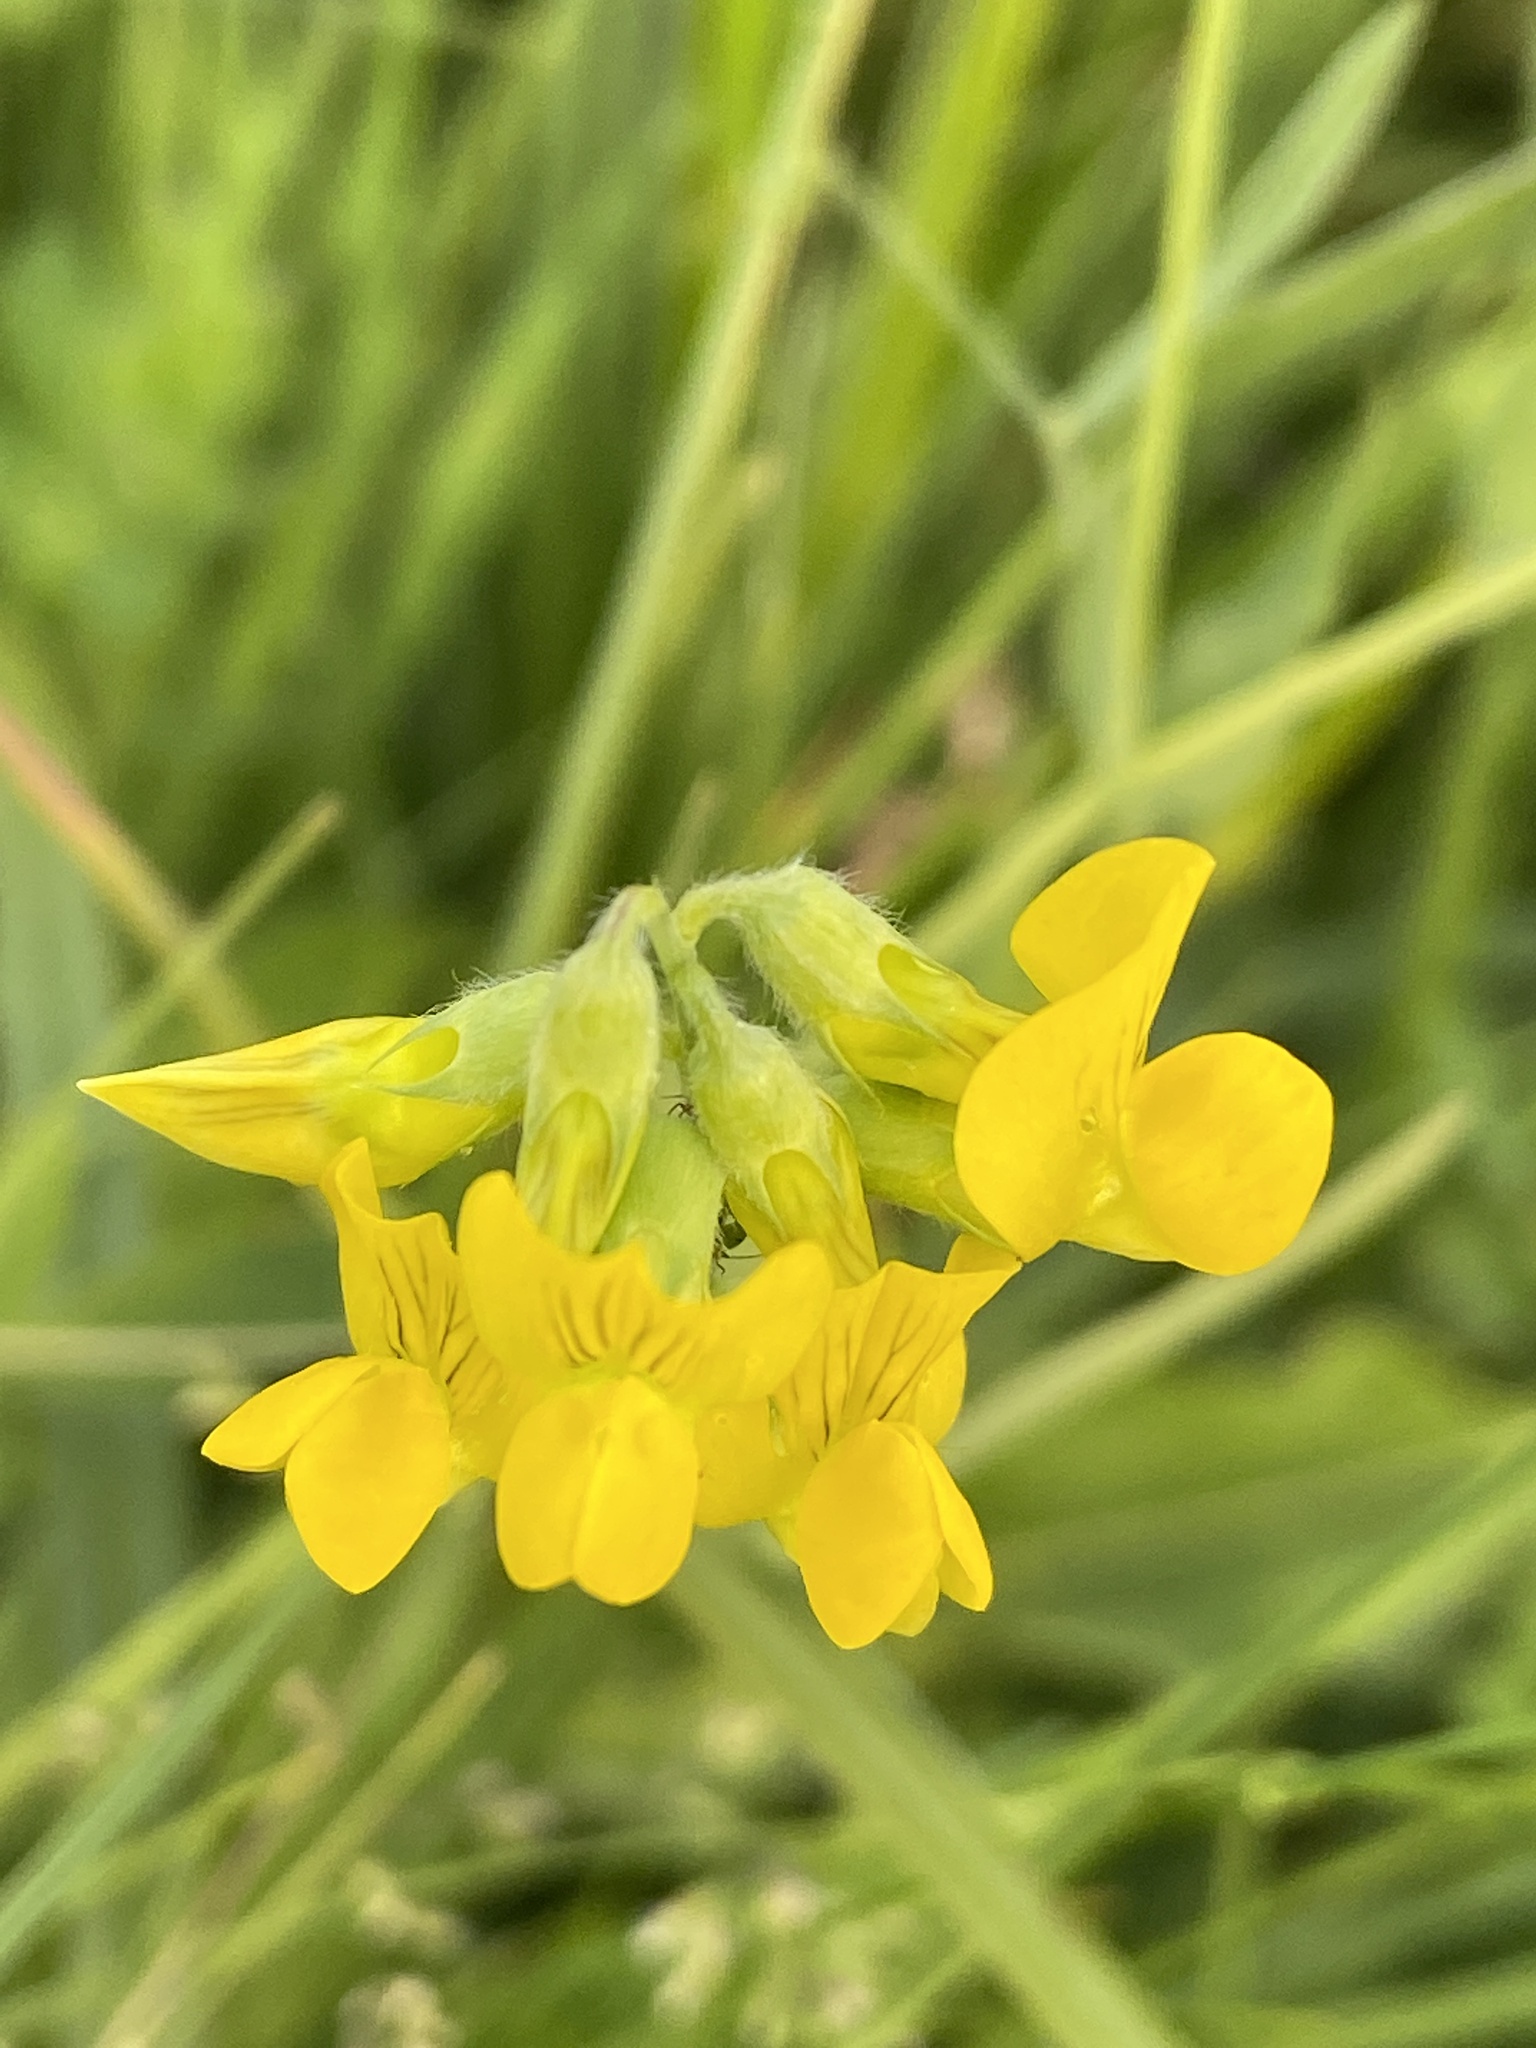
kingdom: Plantae
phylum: Tracheophyta
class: Magnoliopsida
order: Fabales
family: Fabaceae
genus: Lathyrus
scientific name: Lathyrus pratensis
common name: Meadow vetchling
